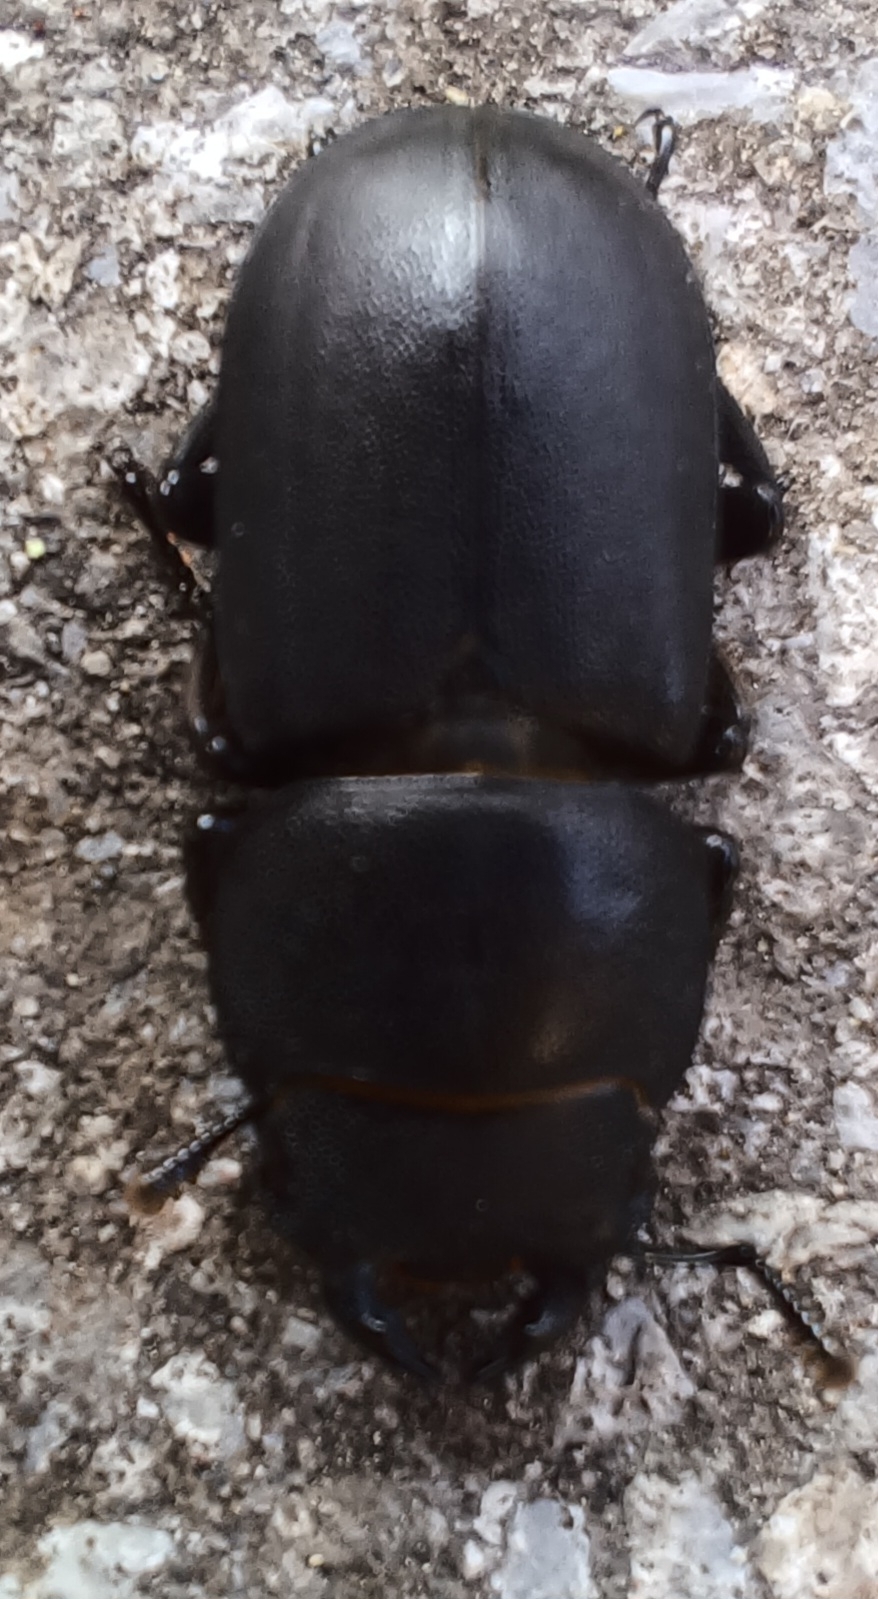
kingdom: Animalia
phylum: Arthropoda
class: Insecta
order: Coleoptera
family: Lucanidae
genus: Dorcus
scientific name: Dorcus parallelipipedus
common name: Lesser stag beetle
